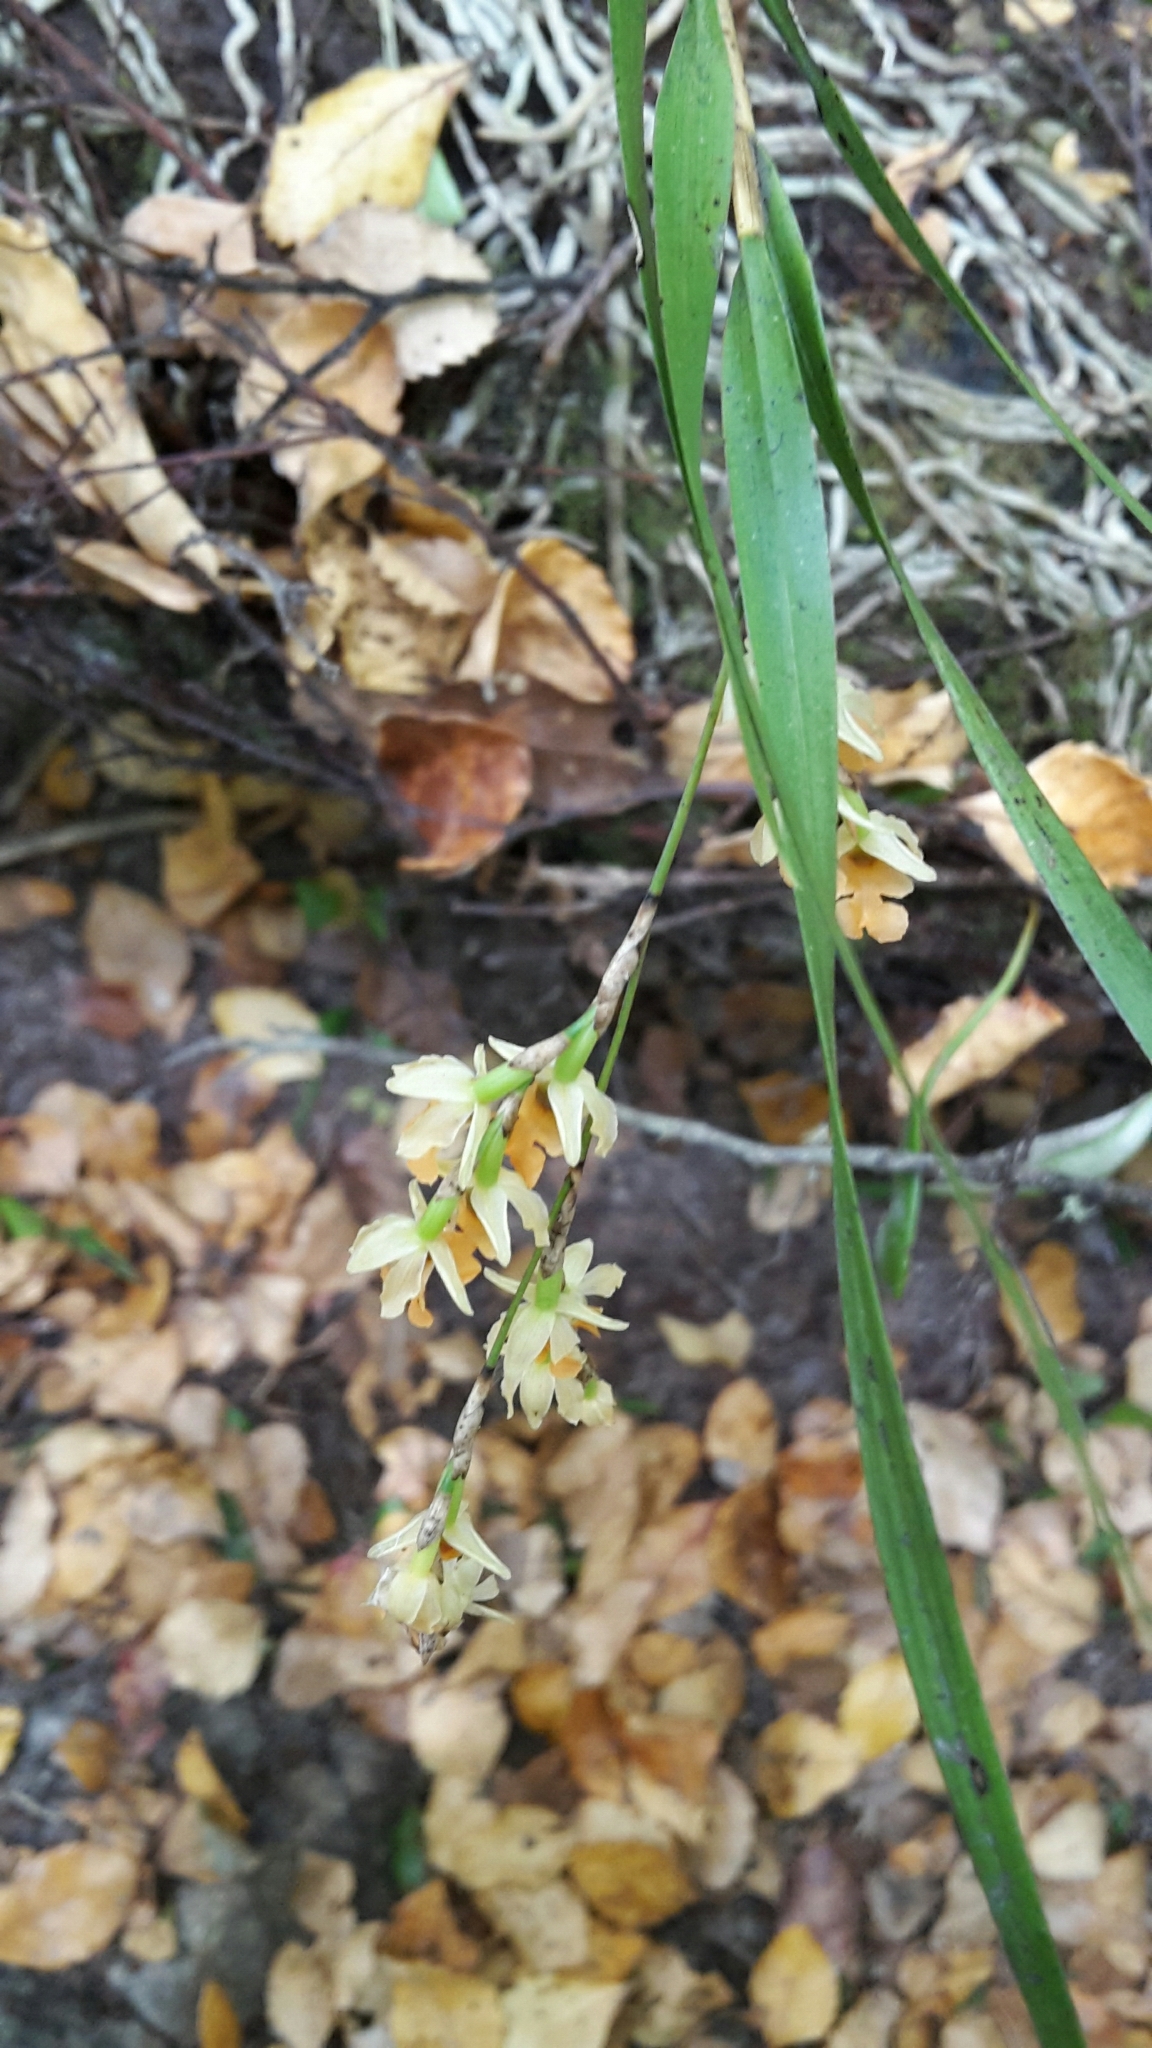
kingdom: Plantae
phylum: Tracheophyta
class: Liliopsida
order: Asparagales
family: Orchidaceae
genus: Earina
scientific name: Earina mucronata
